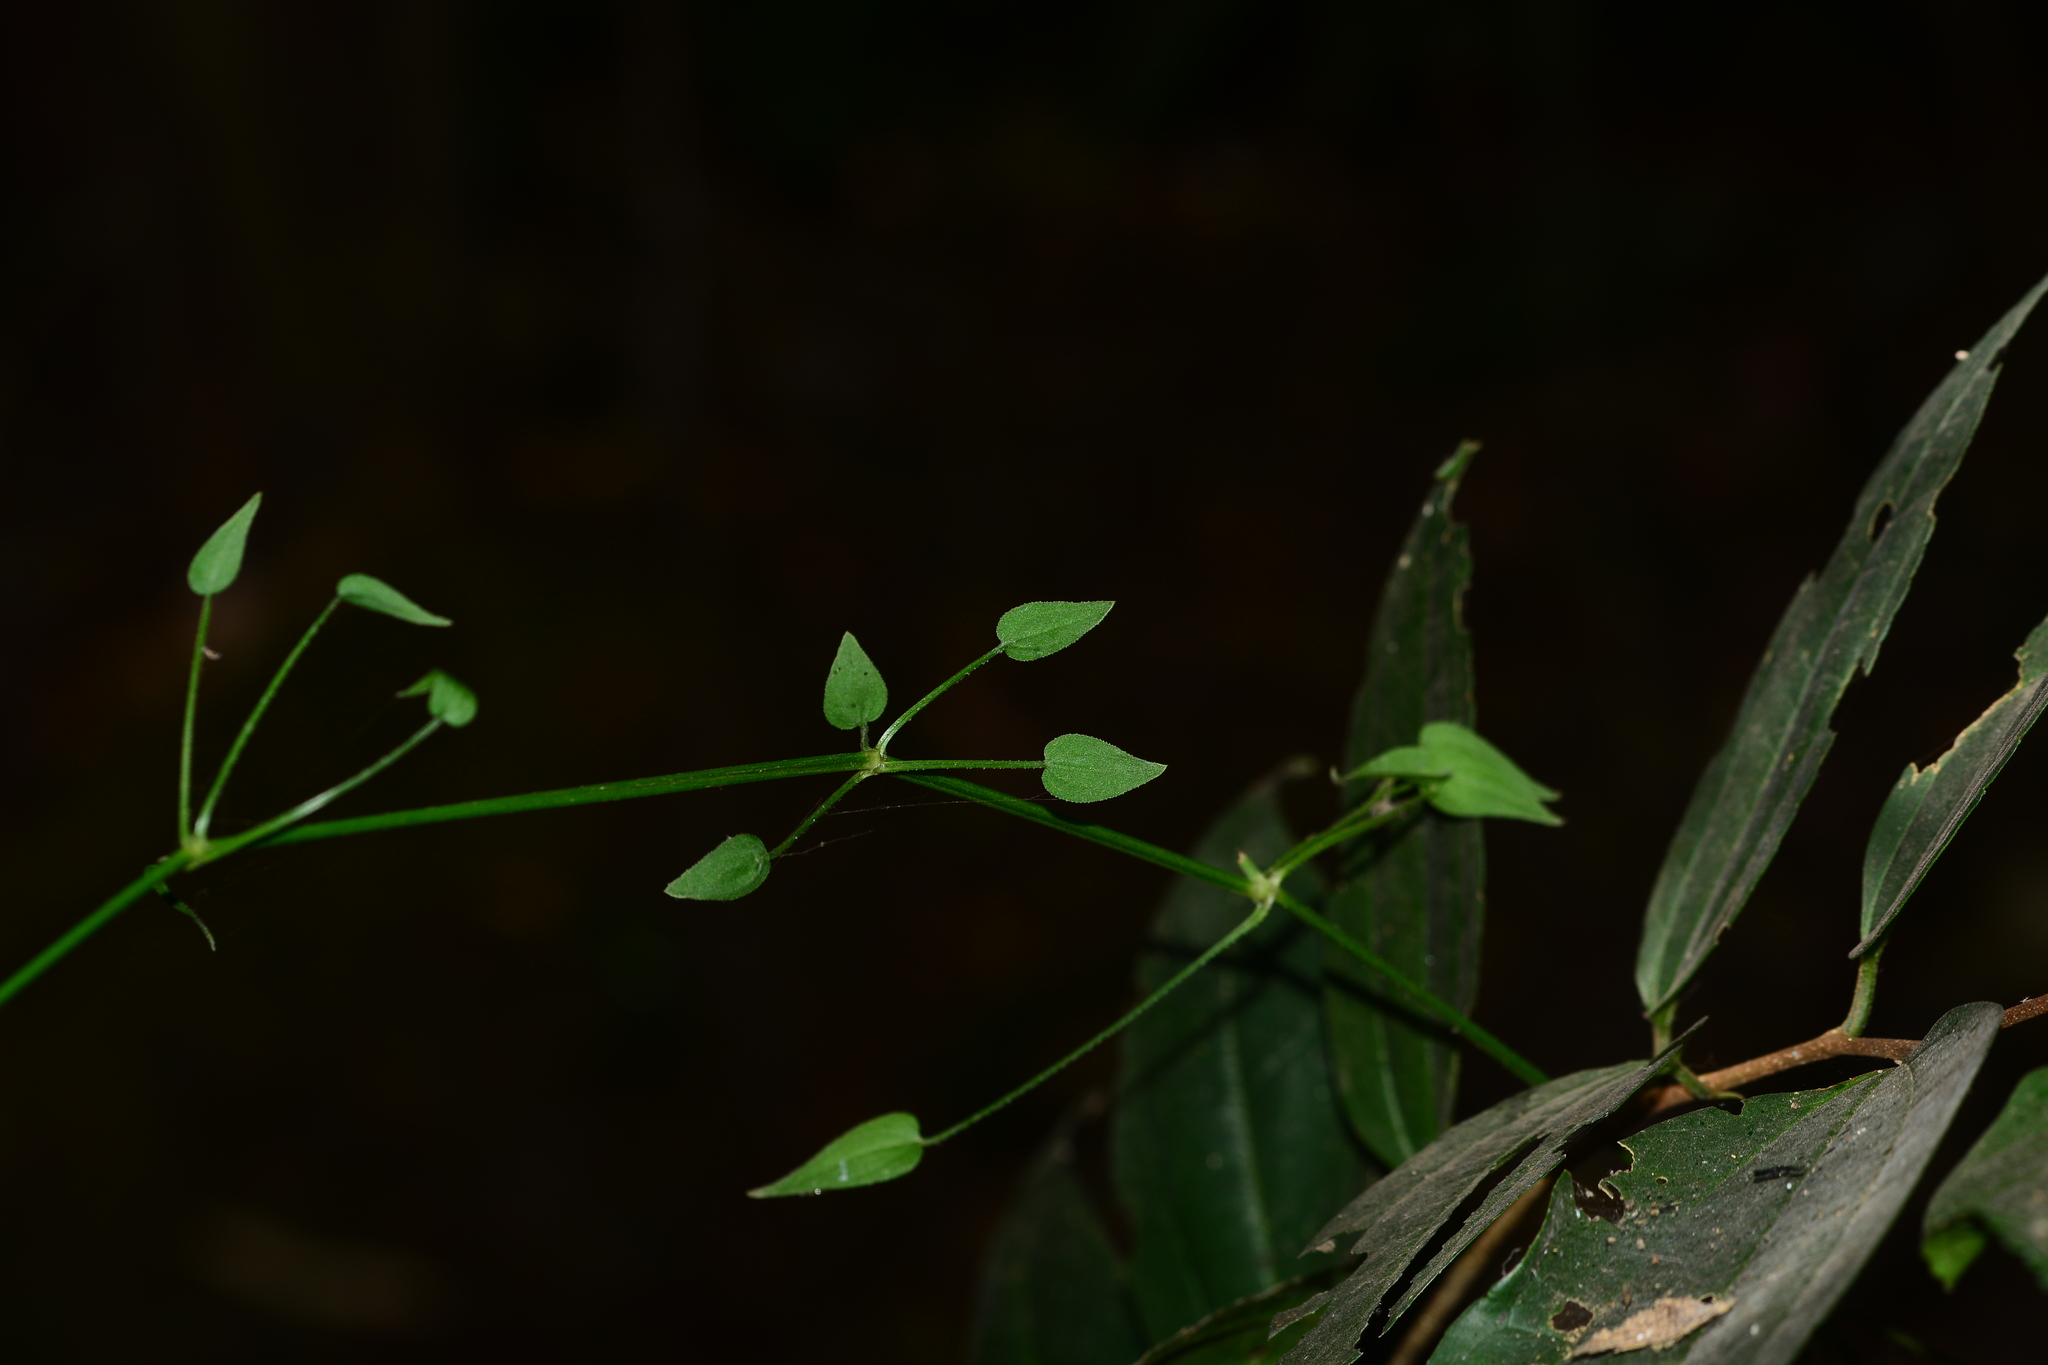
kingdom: Plantae
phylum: Tracheophyta
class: Magnoliopsida
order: Gentianales
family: Rubiaceae
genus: Rubia
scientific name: Rubia cordifolia
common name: Indian madder
